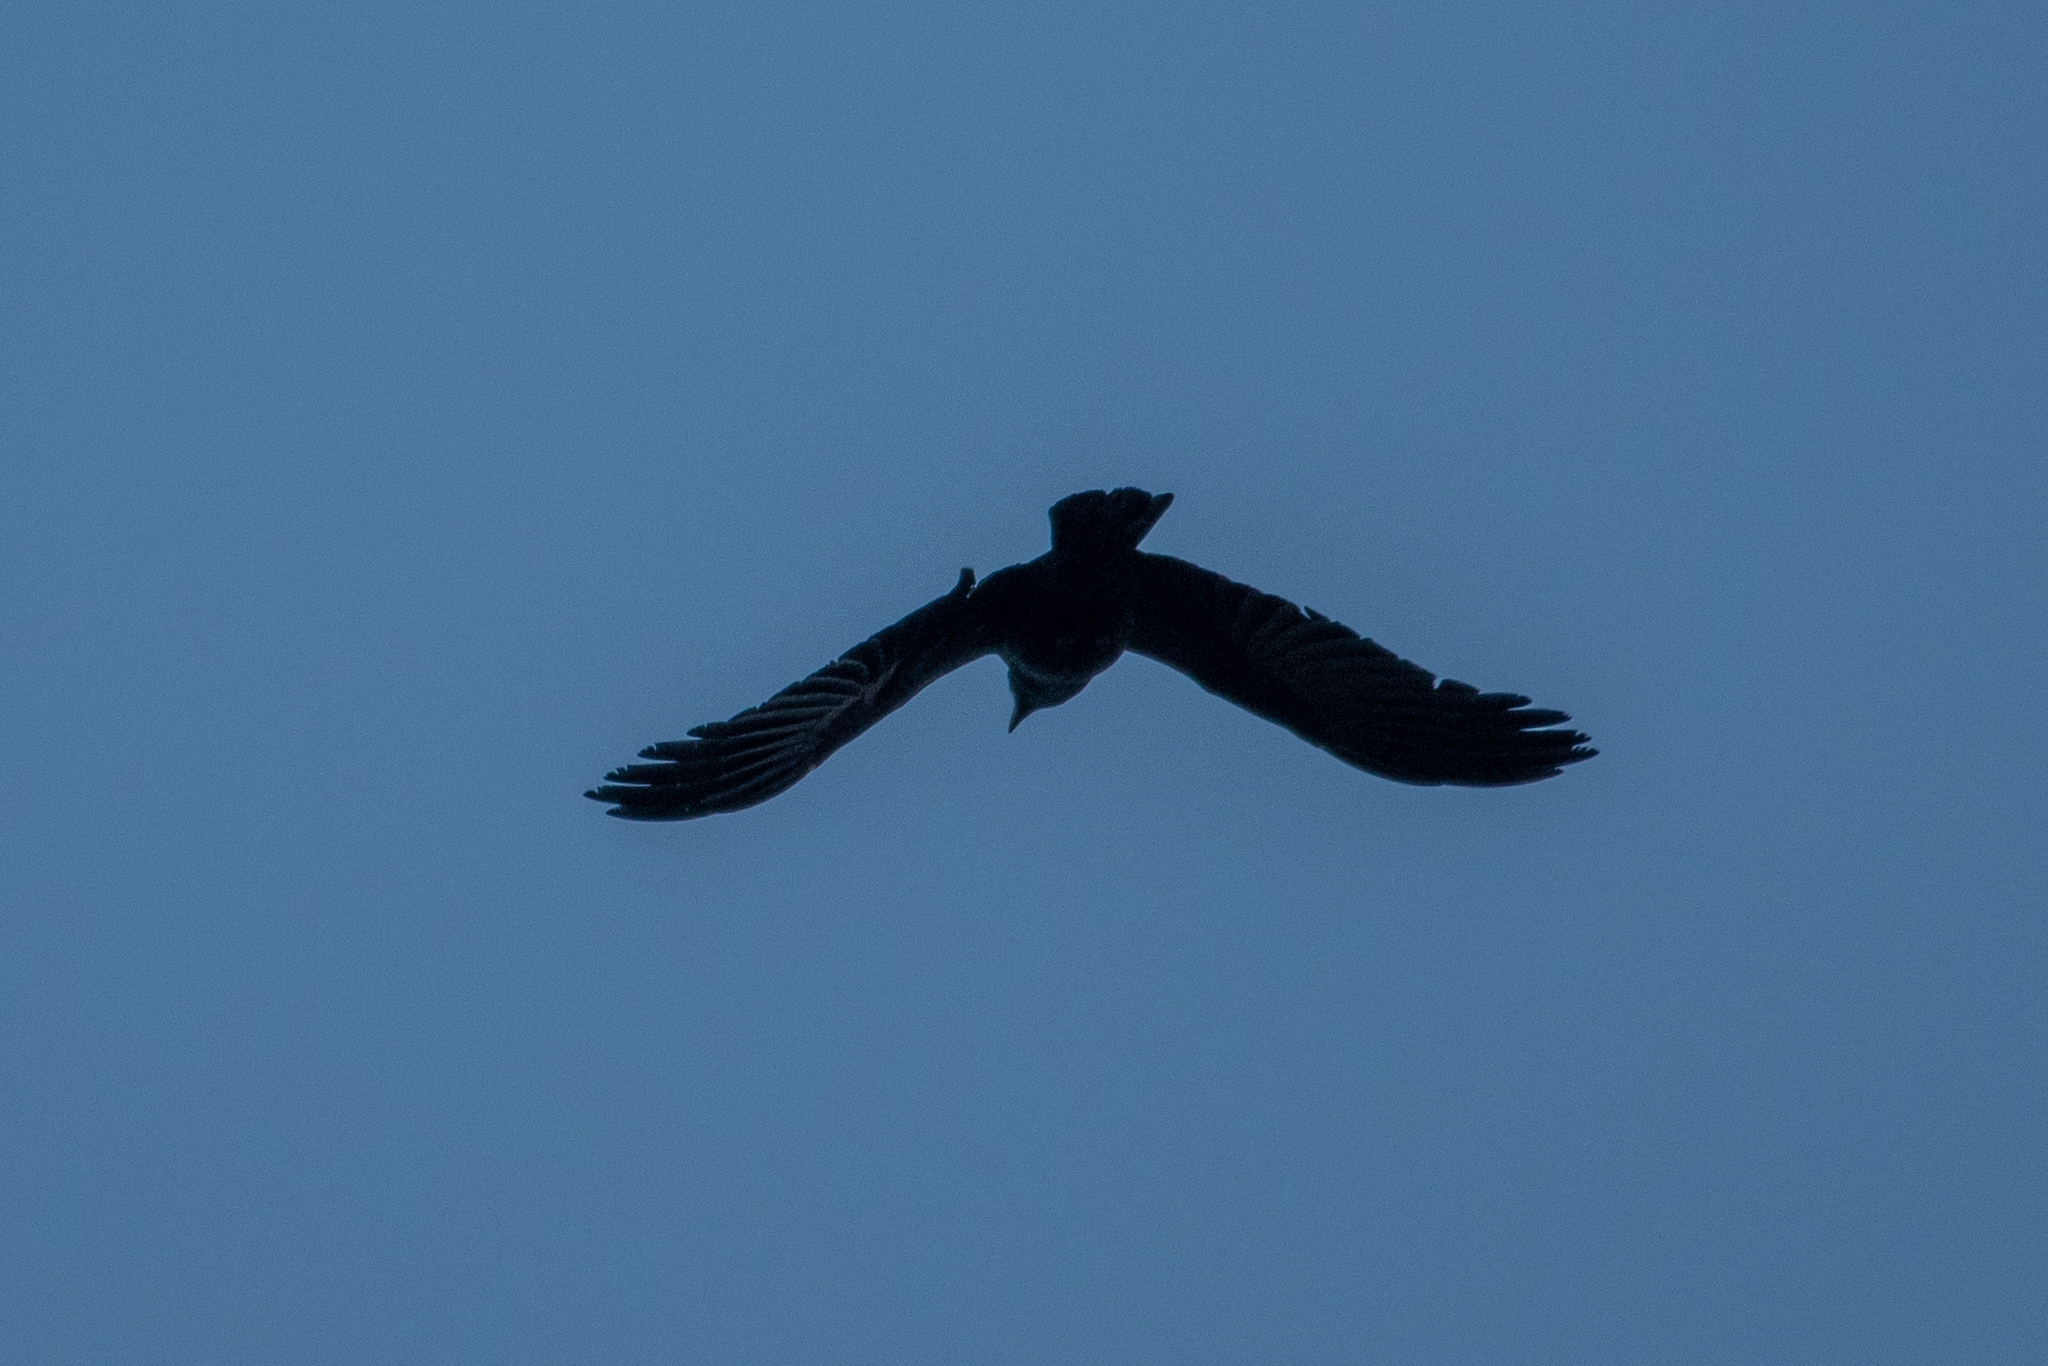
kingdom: Animalia
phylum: Chordata
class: Aves
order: Passeriformes
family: Corvidae
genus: Corvus
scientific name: Corvus brachyrhynchos
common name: American crow
